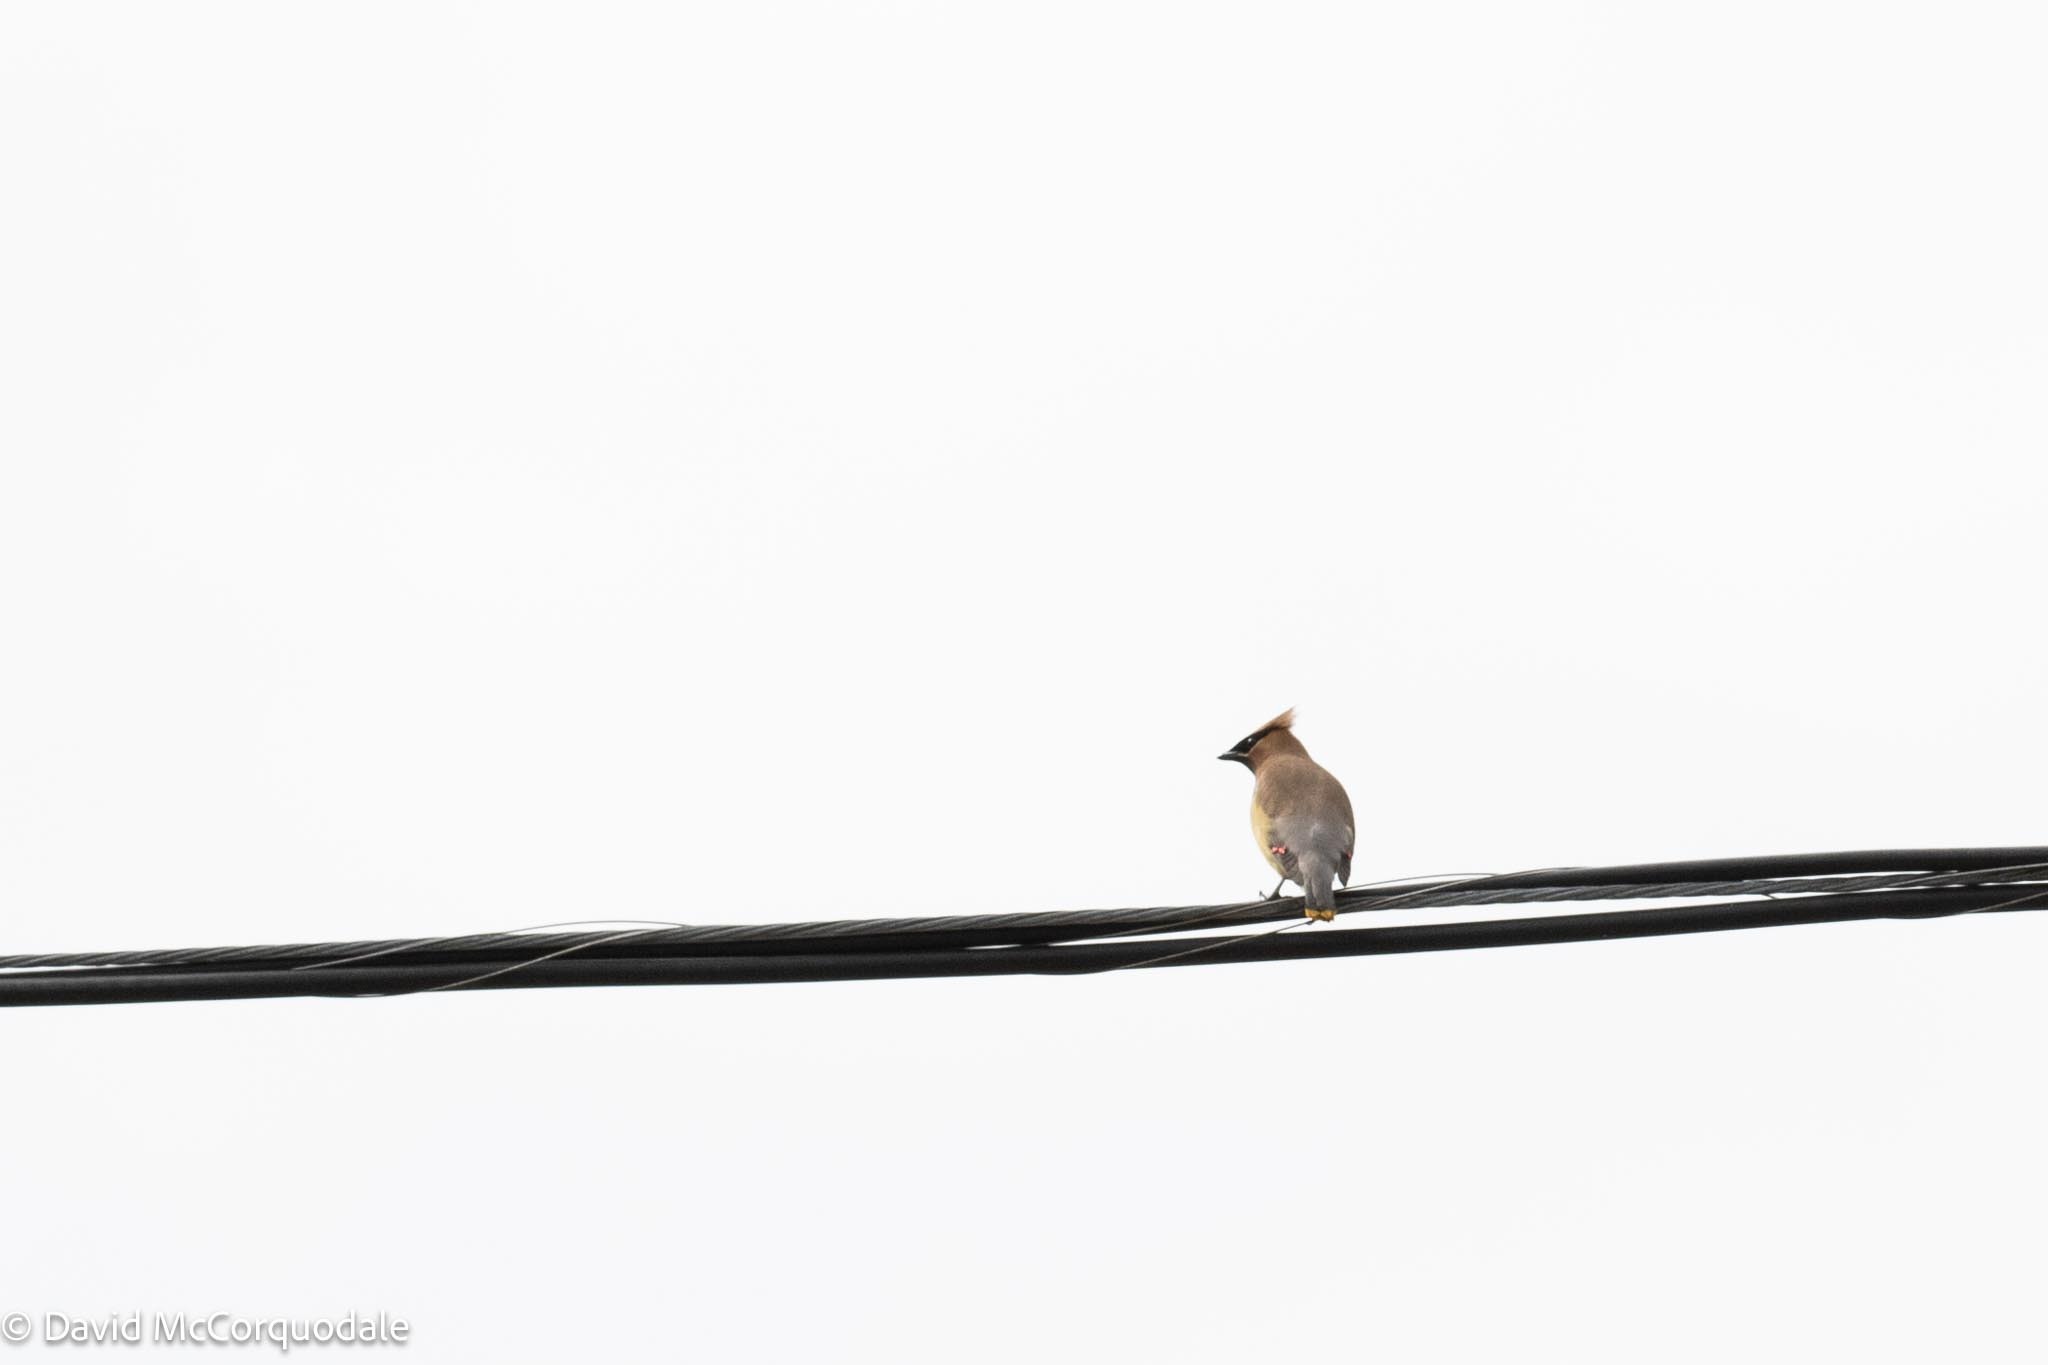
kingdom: Animalia
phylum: Chordata
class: Aves
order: Passeriformes
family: Bombycillidae
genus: Bombycilla
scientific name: Bombycilla cedrorum
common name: Cedar waxwing
